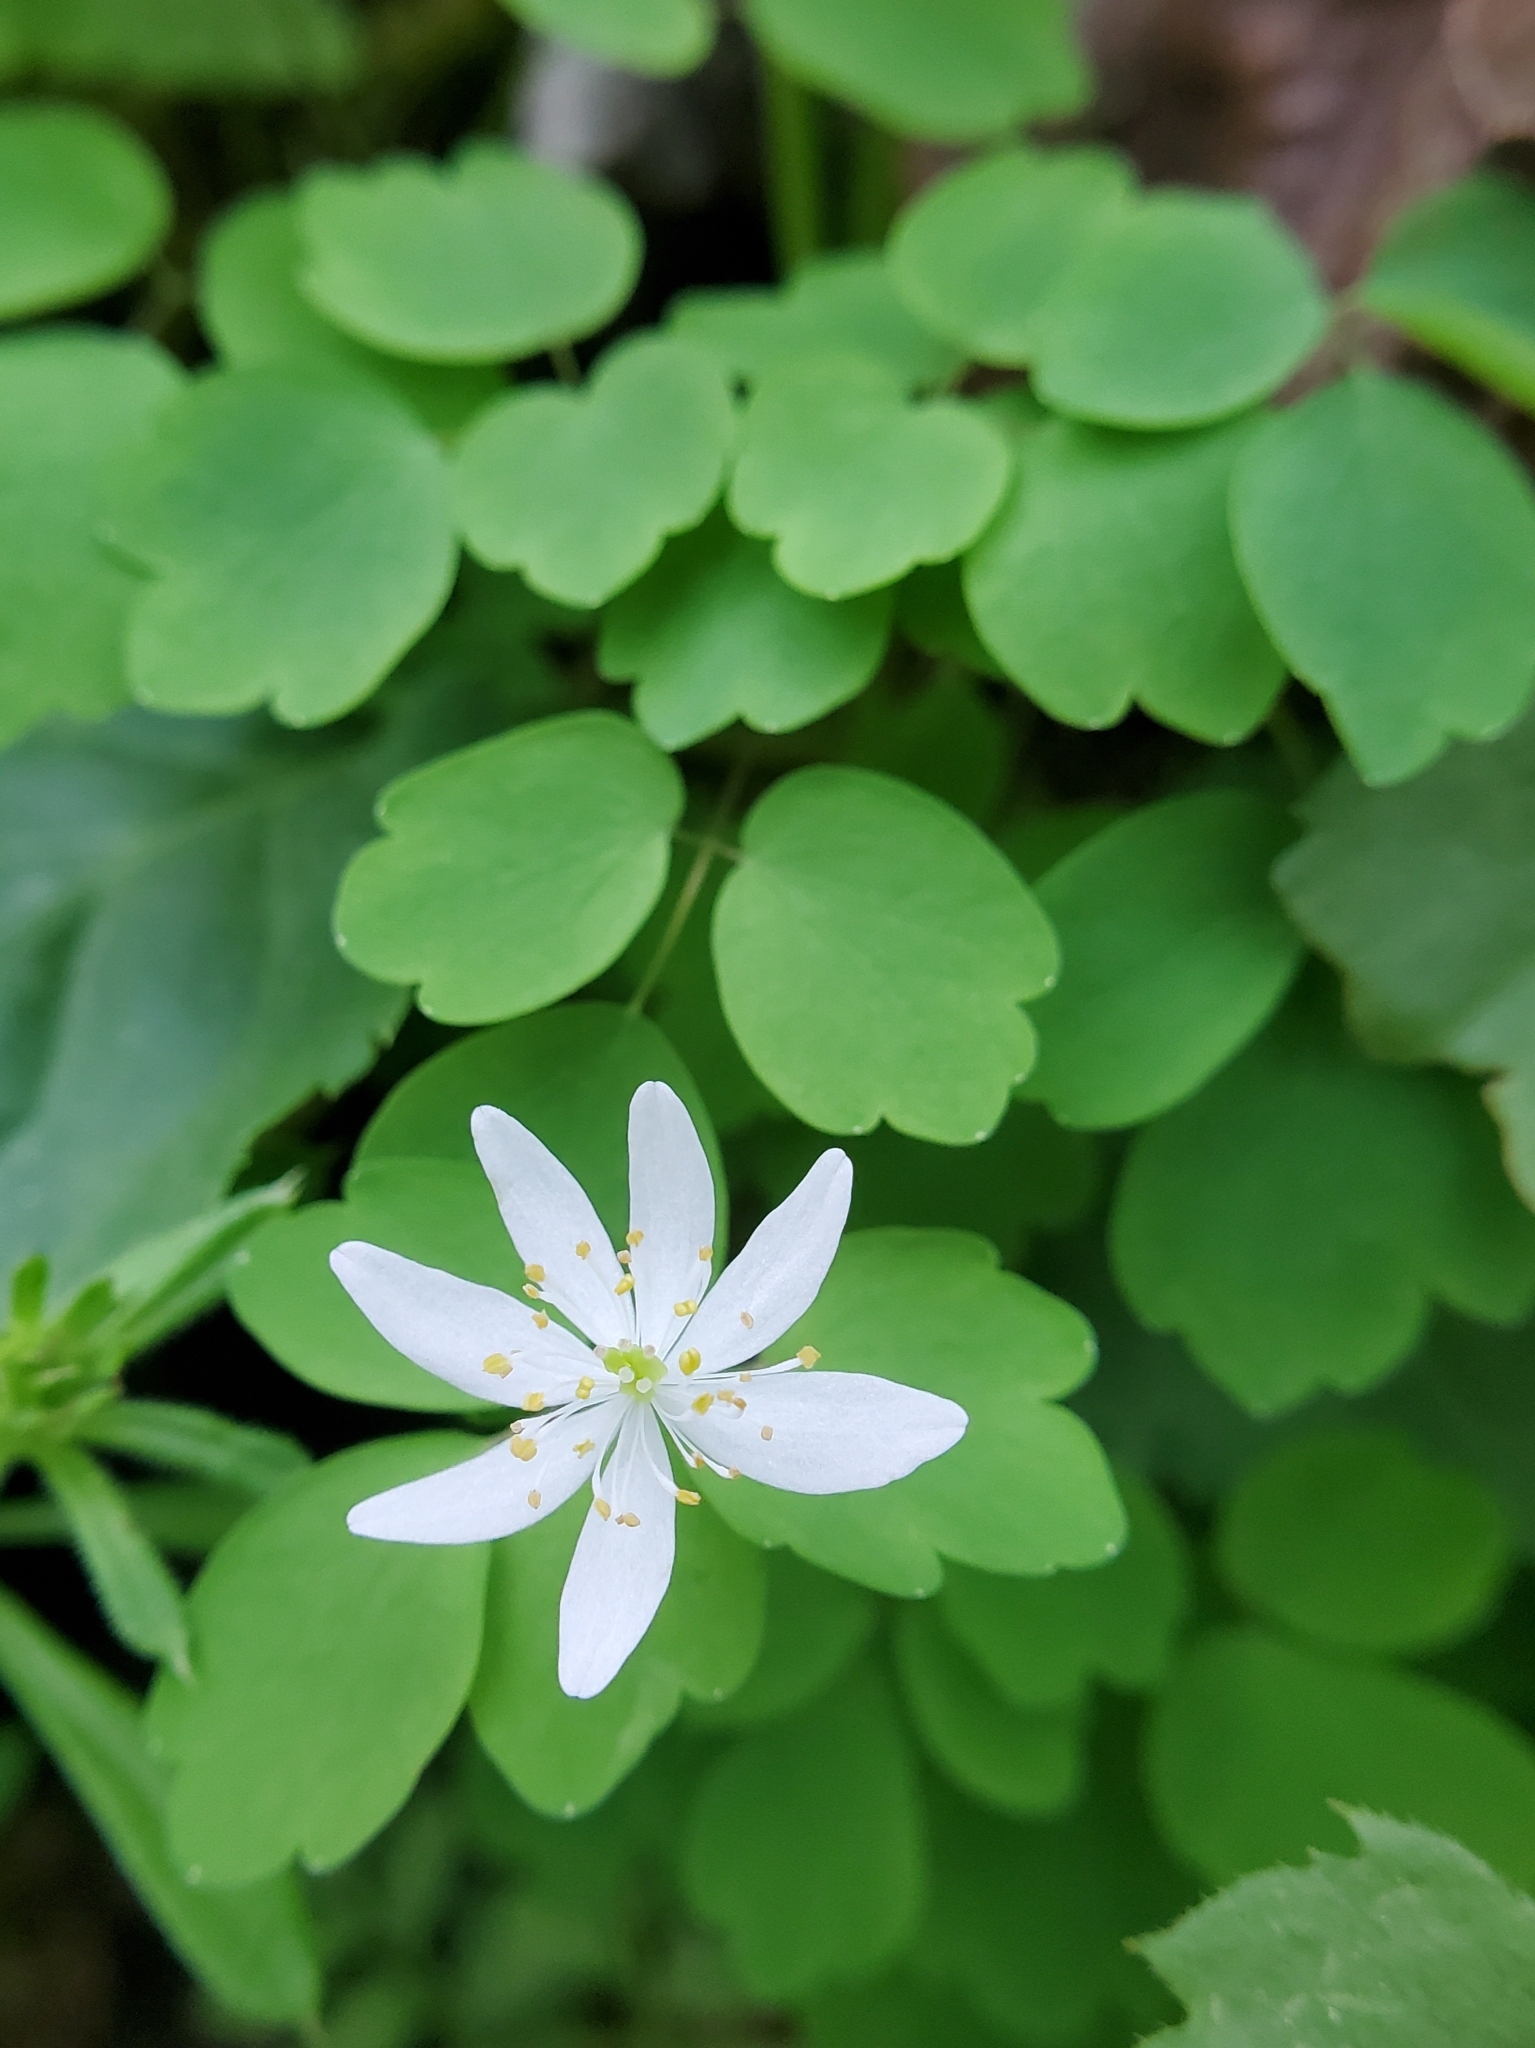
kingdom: Plantae
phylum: Tracheophyta
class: Magnoliopsida
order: Ranunculales
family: Ranunculaceae
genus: Thalictrum
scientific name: Thalictrum thalictroides
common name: Rue-anemone
